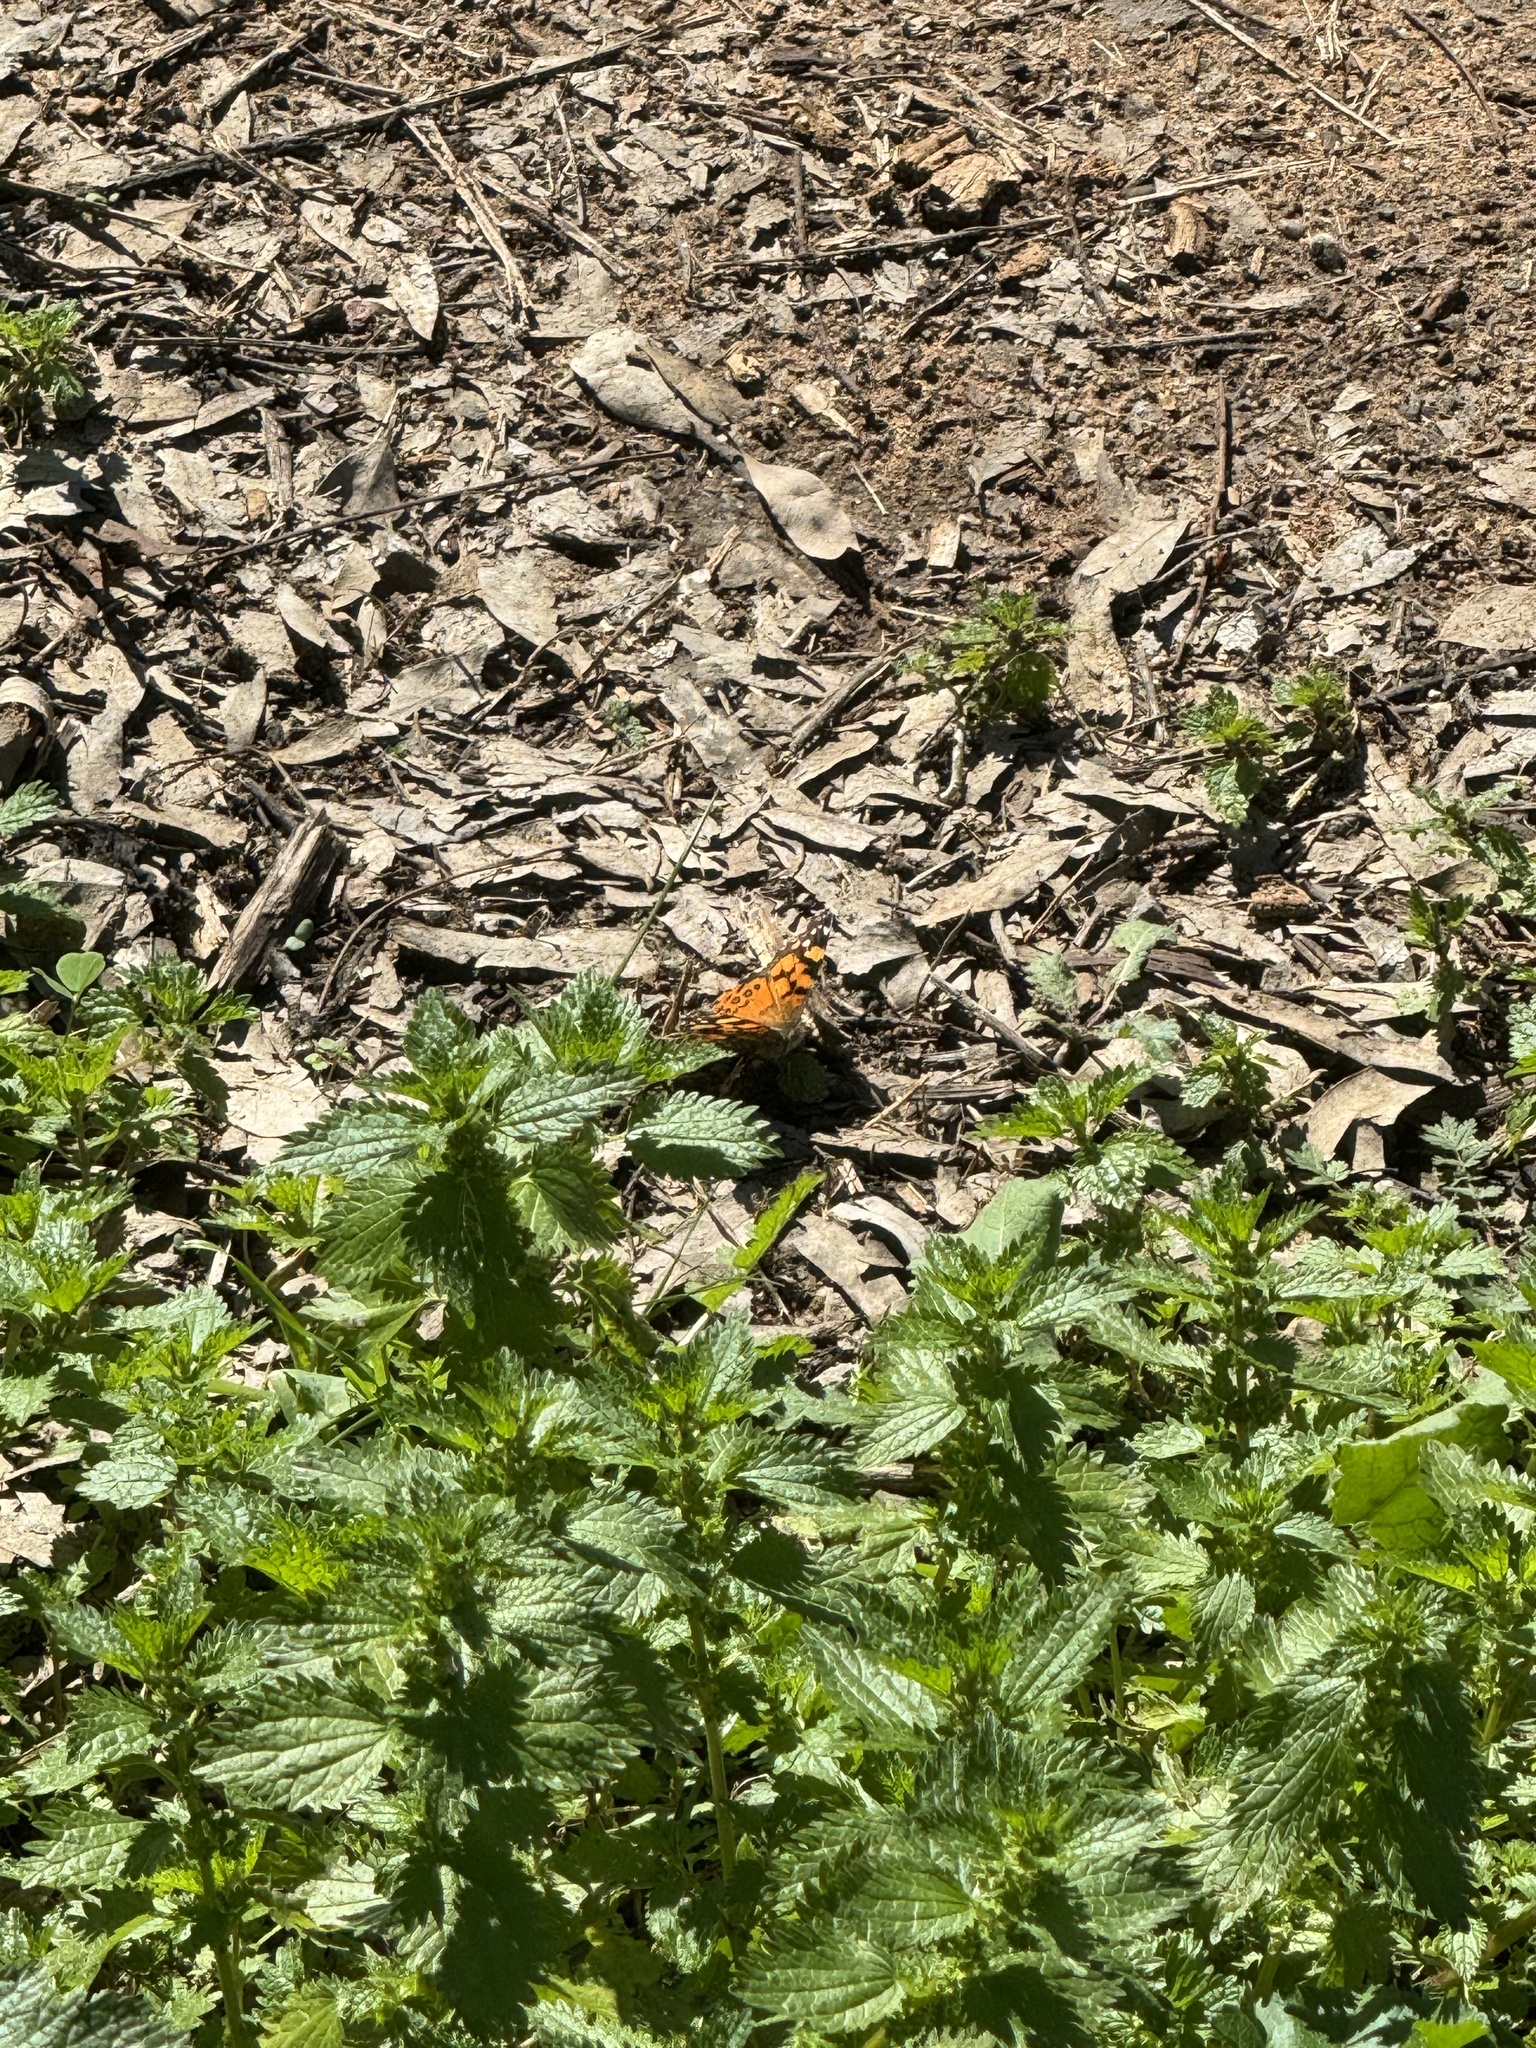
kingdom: Animalia
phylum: Arthropoda
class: Insecta
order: Lepidoptera
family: Nymphalidae
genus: Vanessa
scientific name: Vanessa annabella
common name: West coast lady
